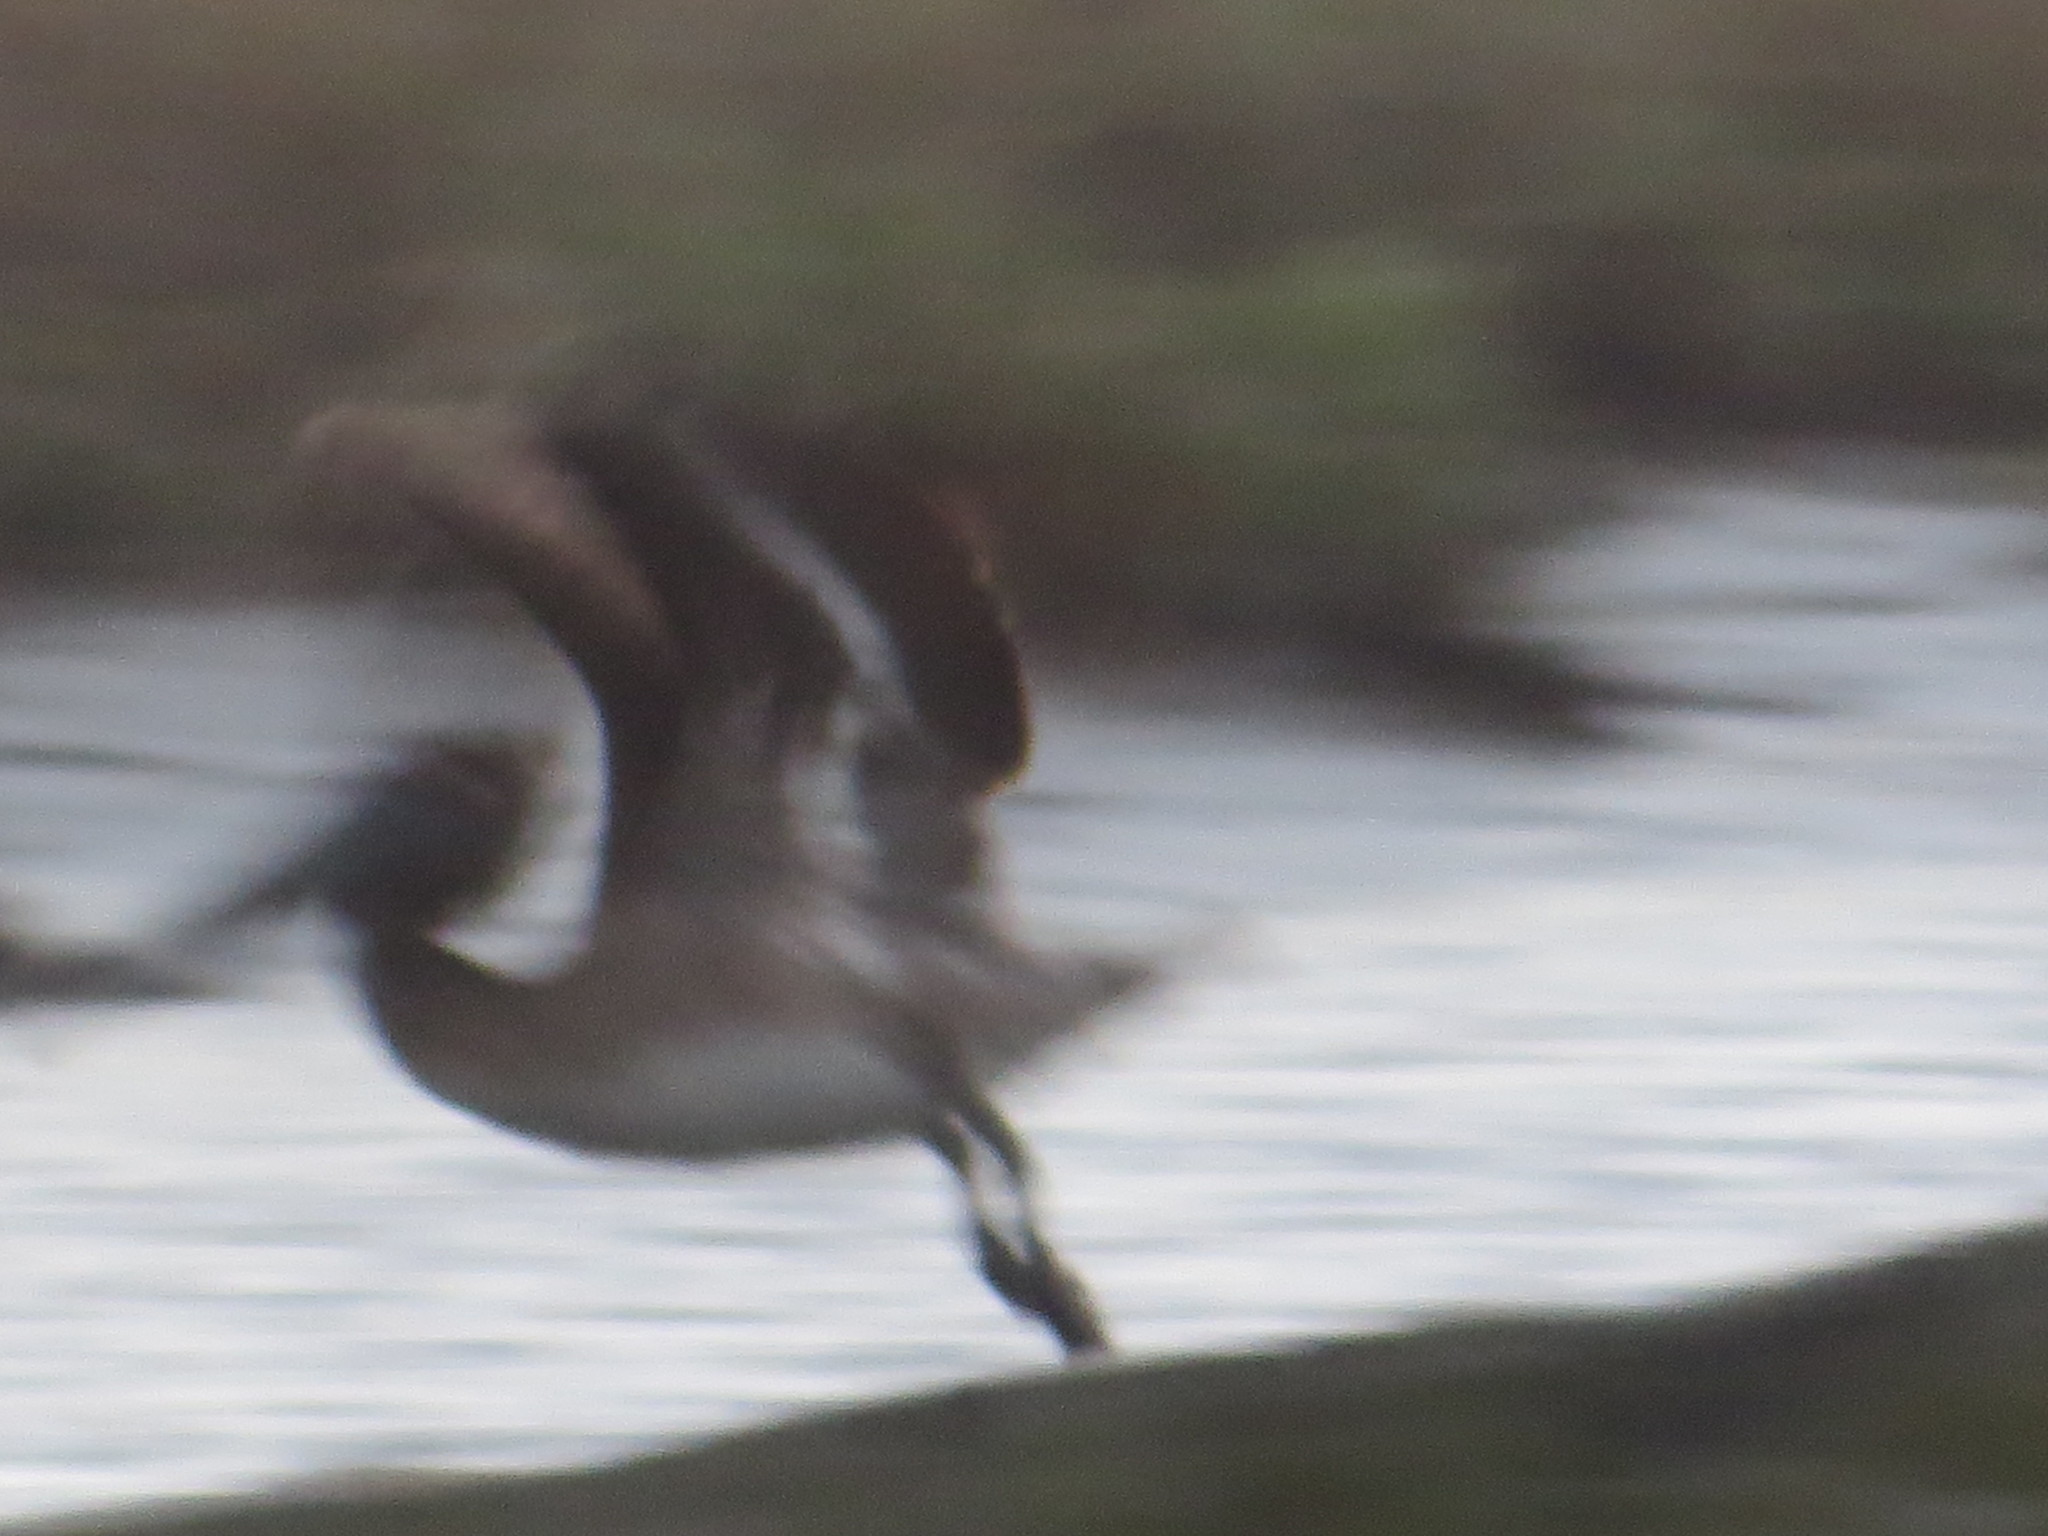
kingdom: Animalia
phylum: Chordata
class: Aves
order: Pelecaniformes
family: Pelecanidae
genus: Pelecanus
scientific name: Pelecanus occidentalis
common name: Brown pelican
